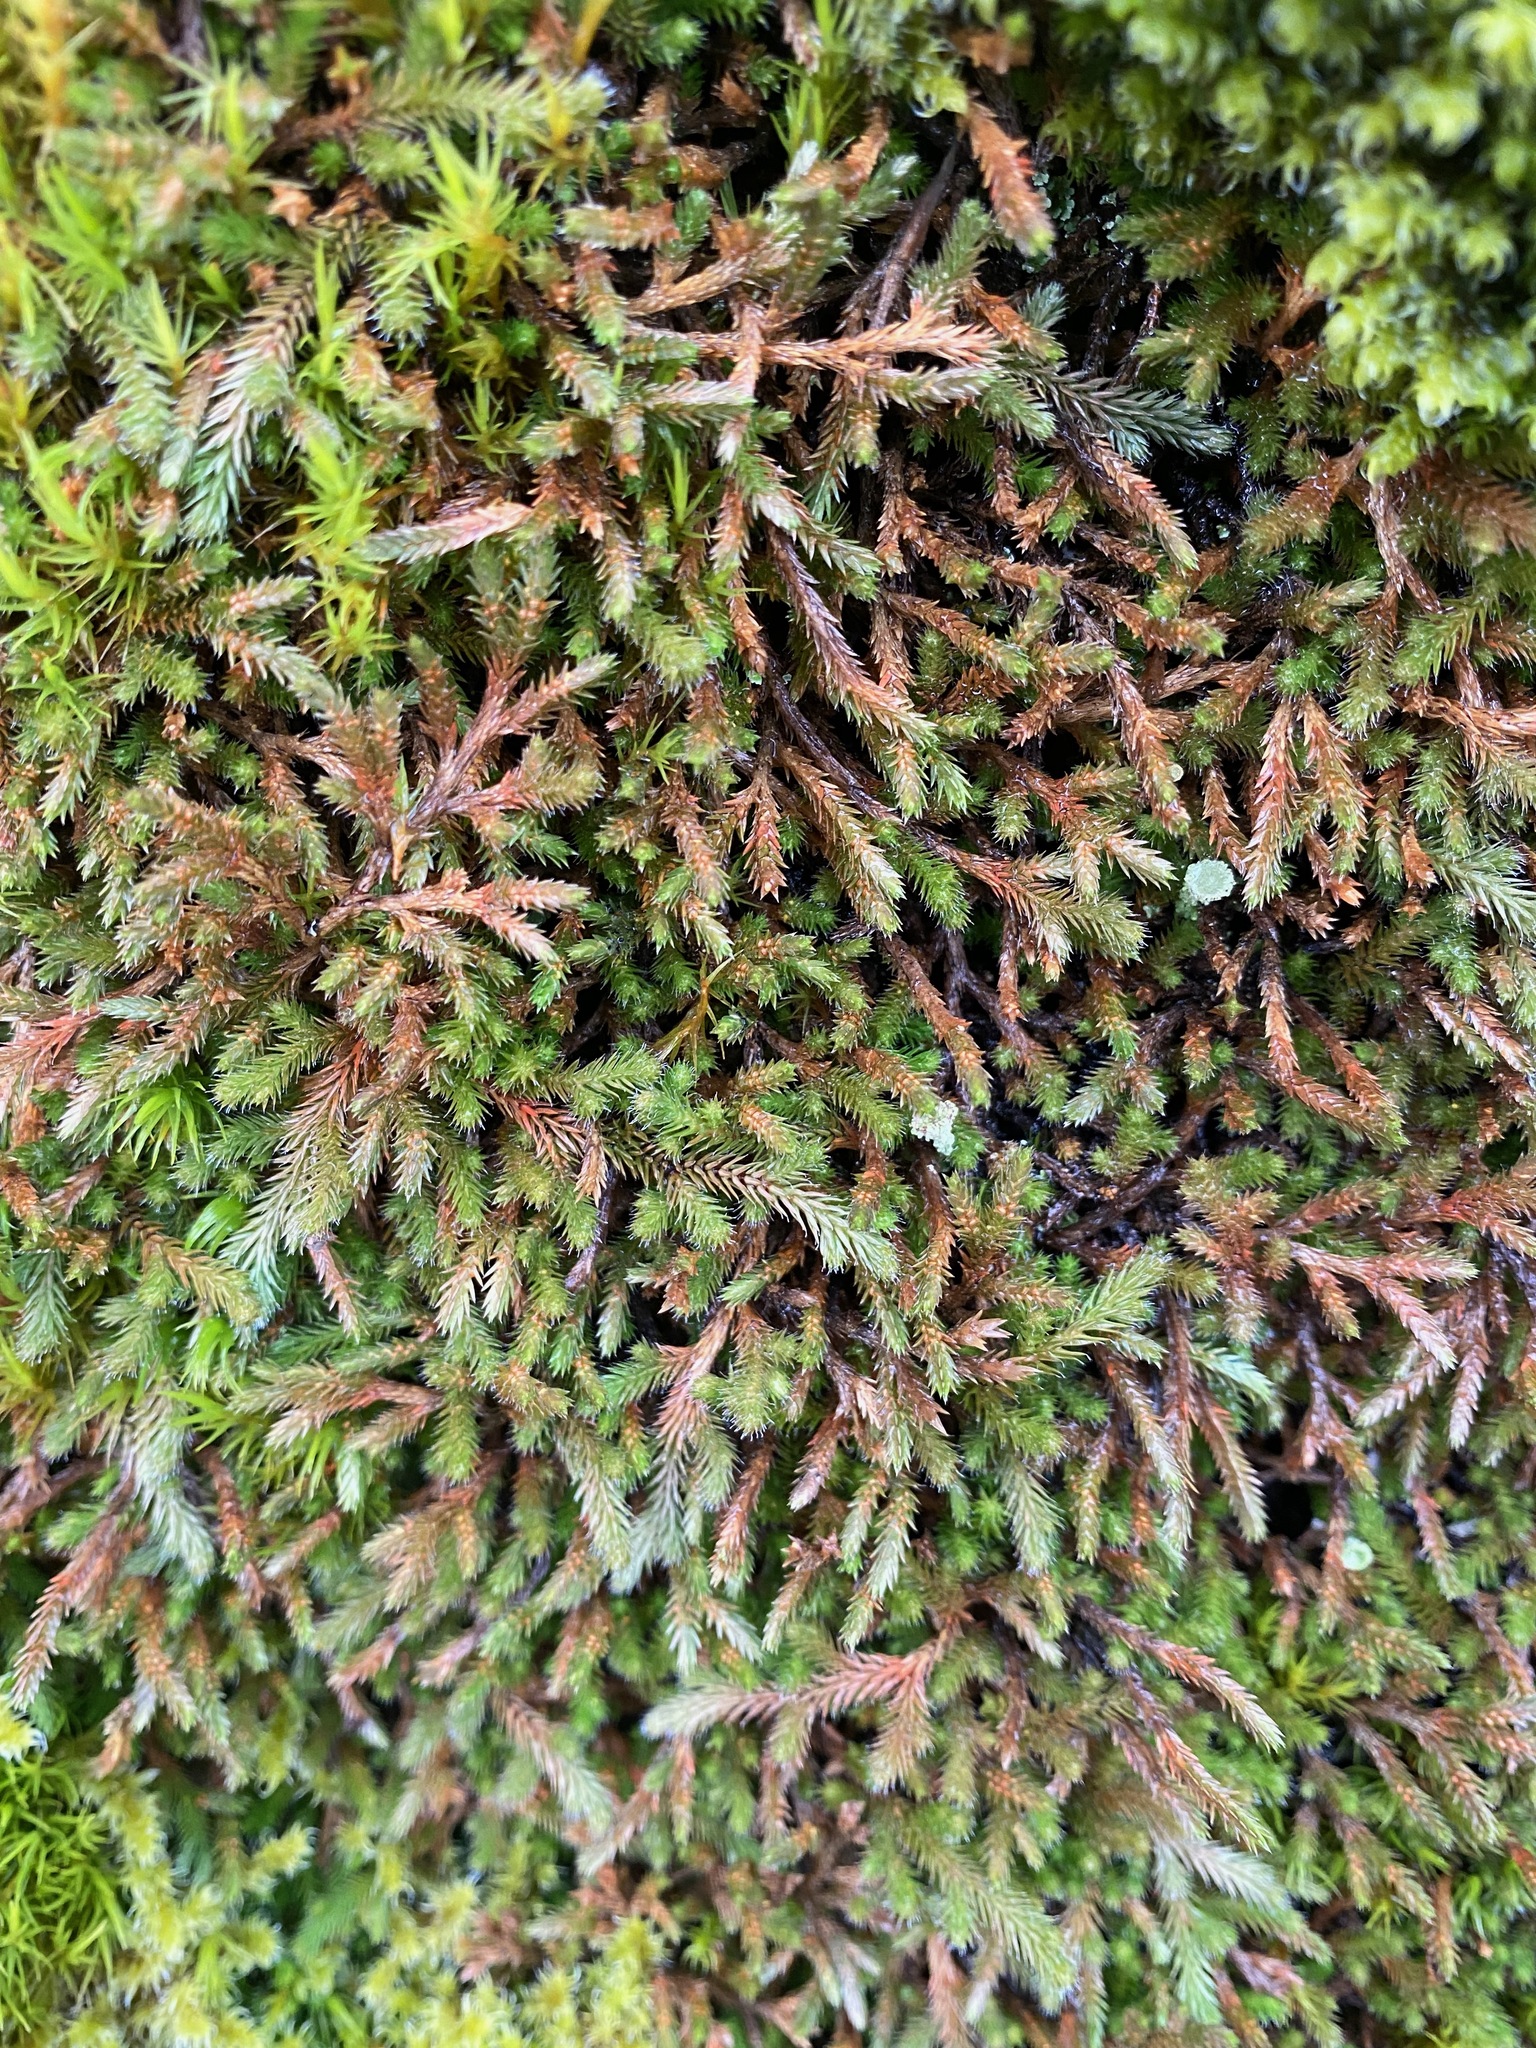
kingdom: Plantae
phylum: Tracheophyta
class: Lycopodiopsida
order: Selaginellales
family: Selaginellaceae
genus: Selaginella
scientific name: Selaginella wallacei
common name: Wallace's selaginella
